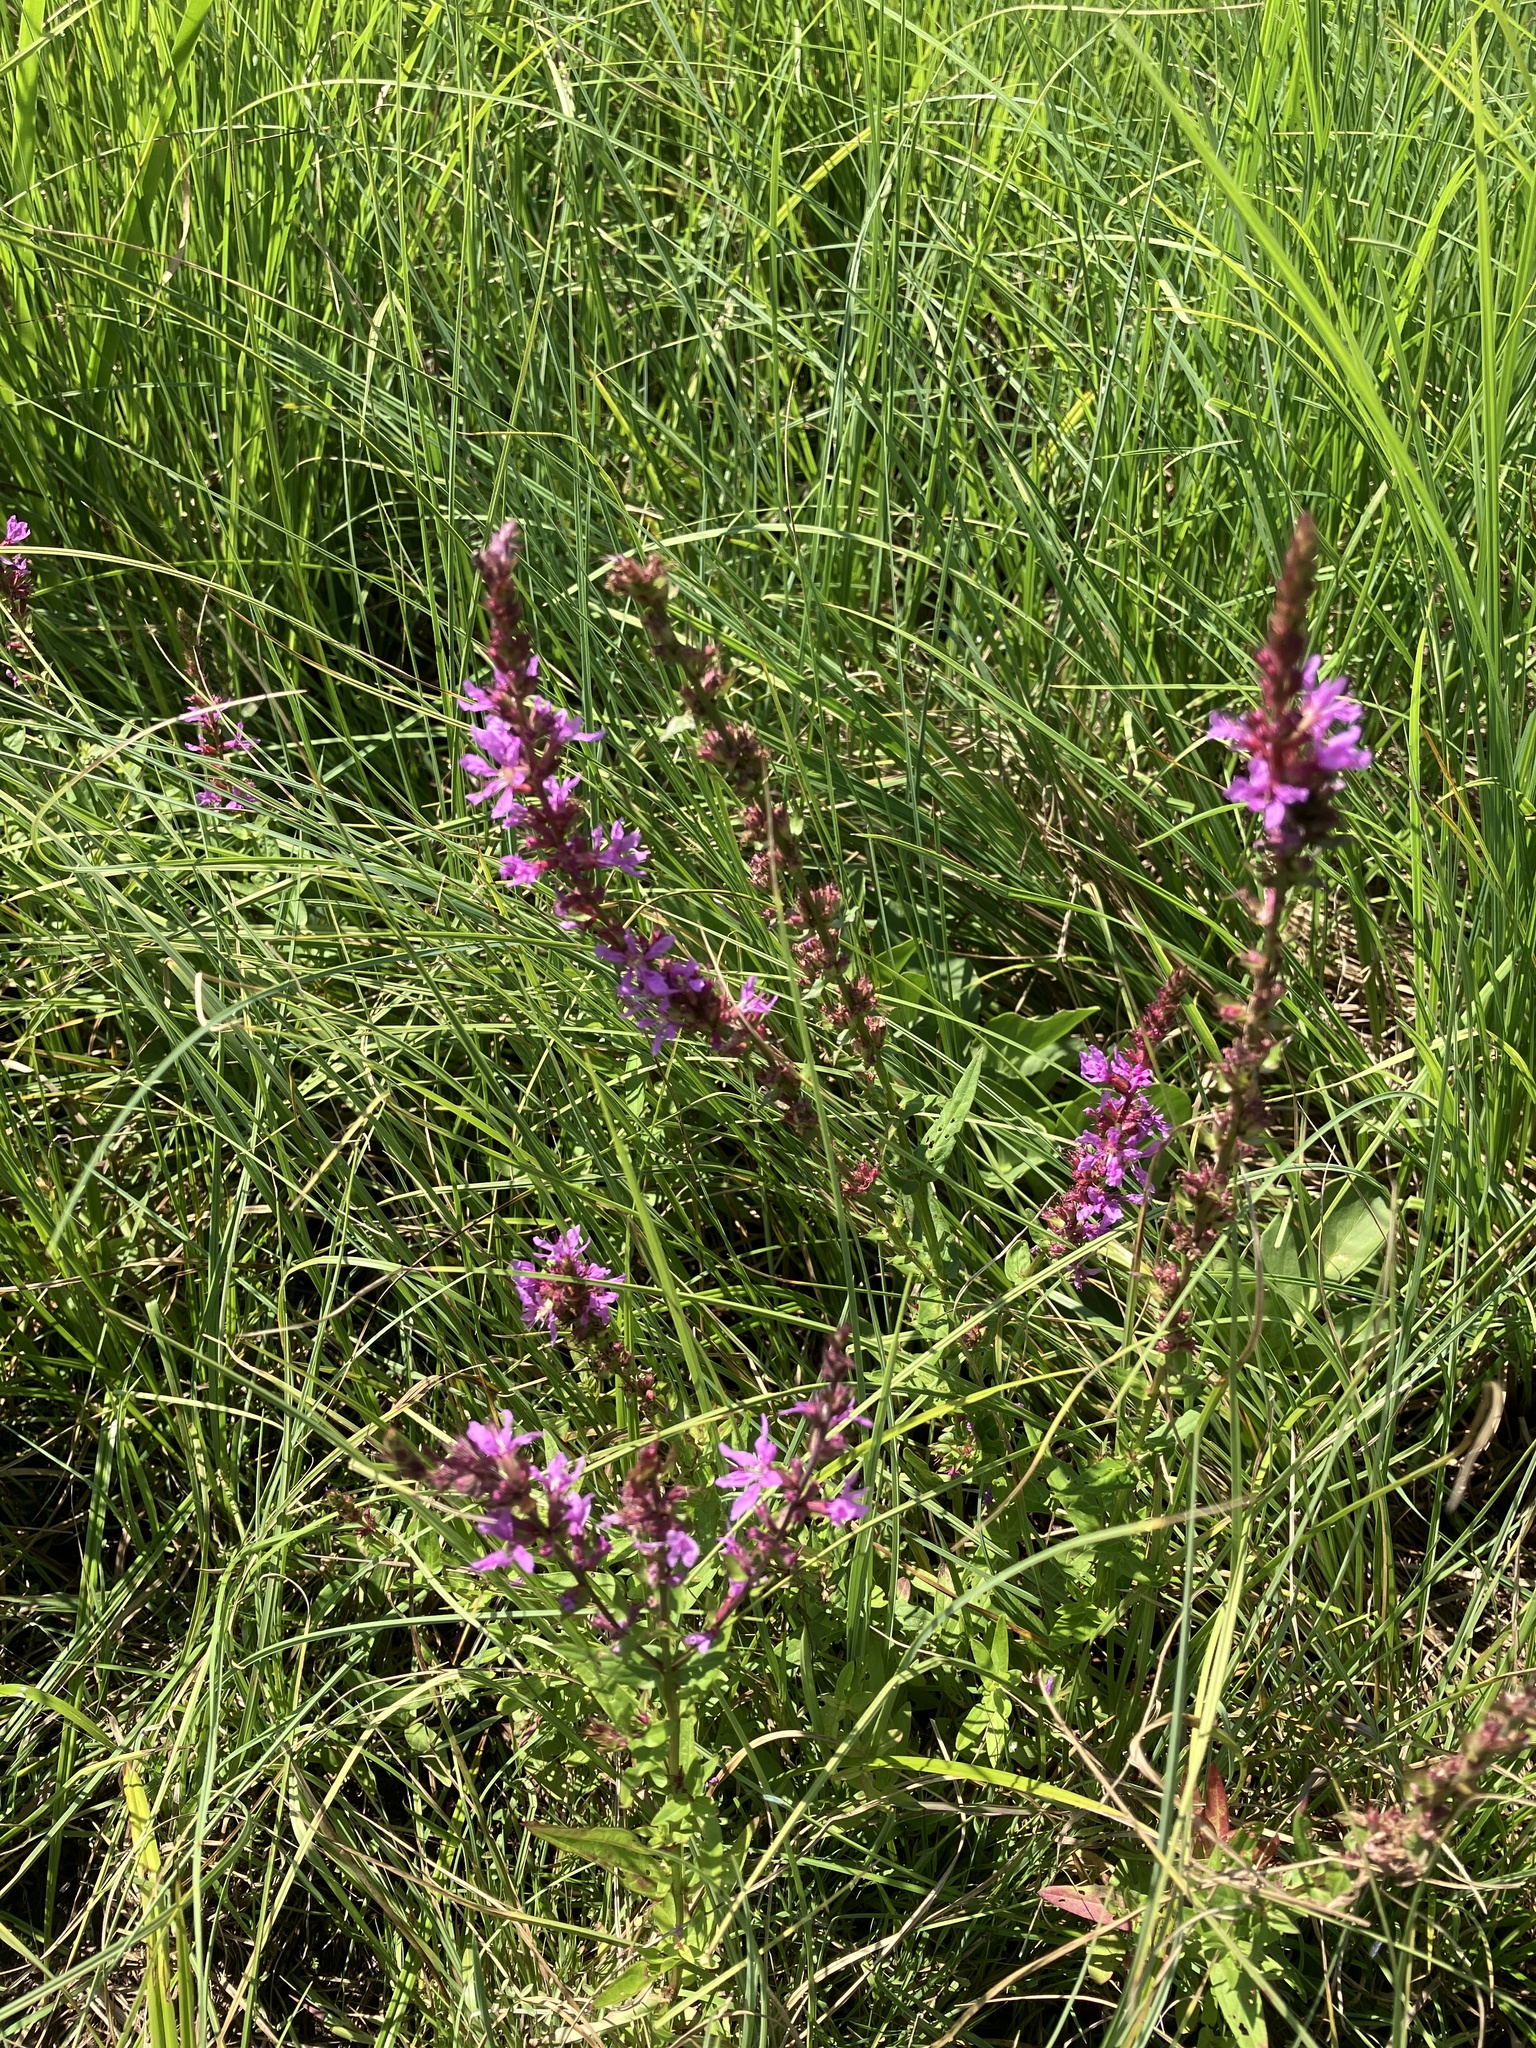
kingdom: Plantae
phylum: Tracheophyta
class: Magnoliopsida
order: Myrtales
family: Lythraceae
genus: Lythrum
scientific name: Lythrum salicaria
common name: Purple loosestrife
